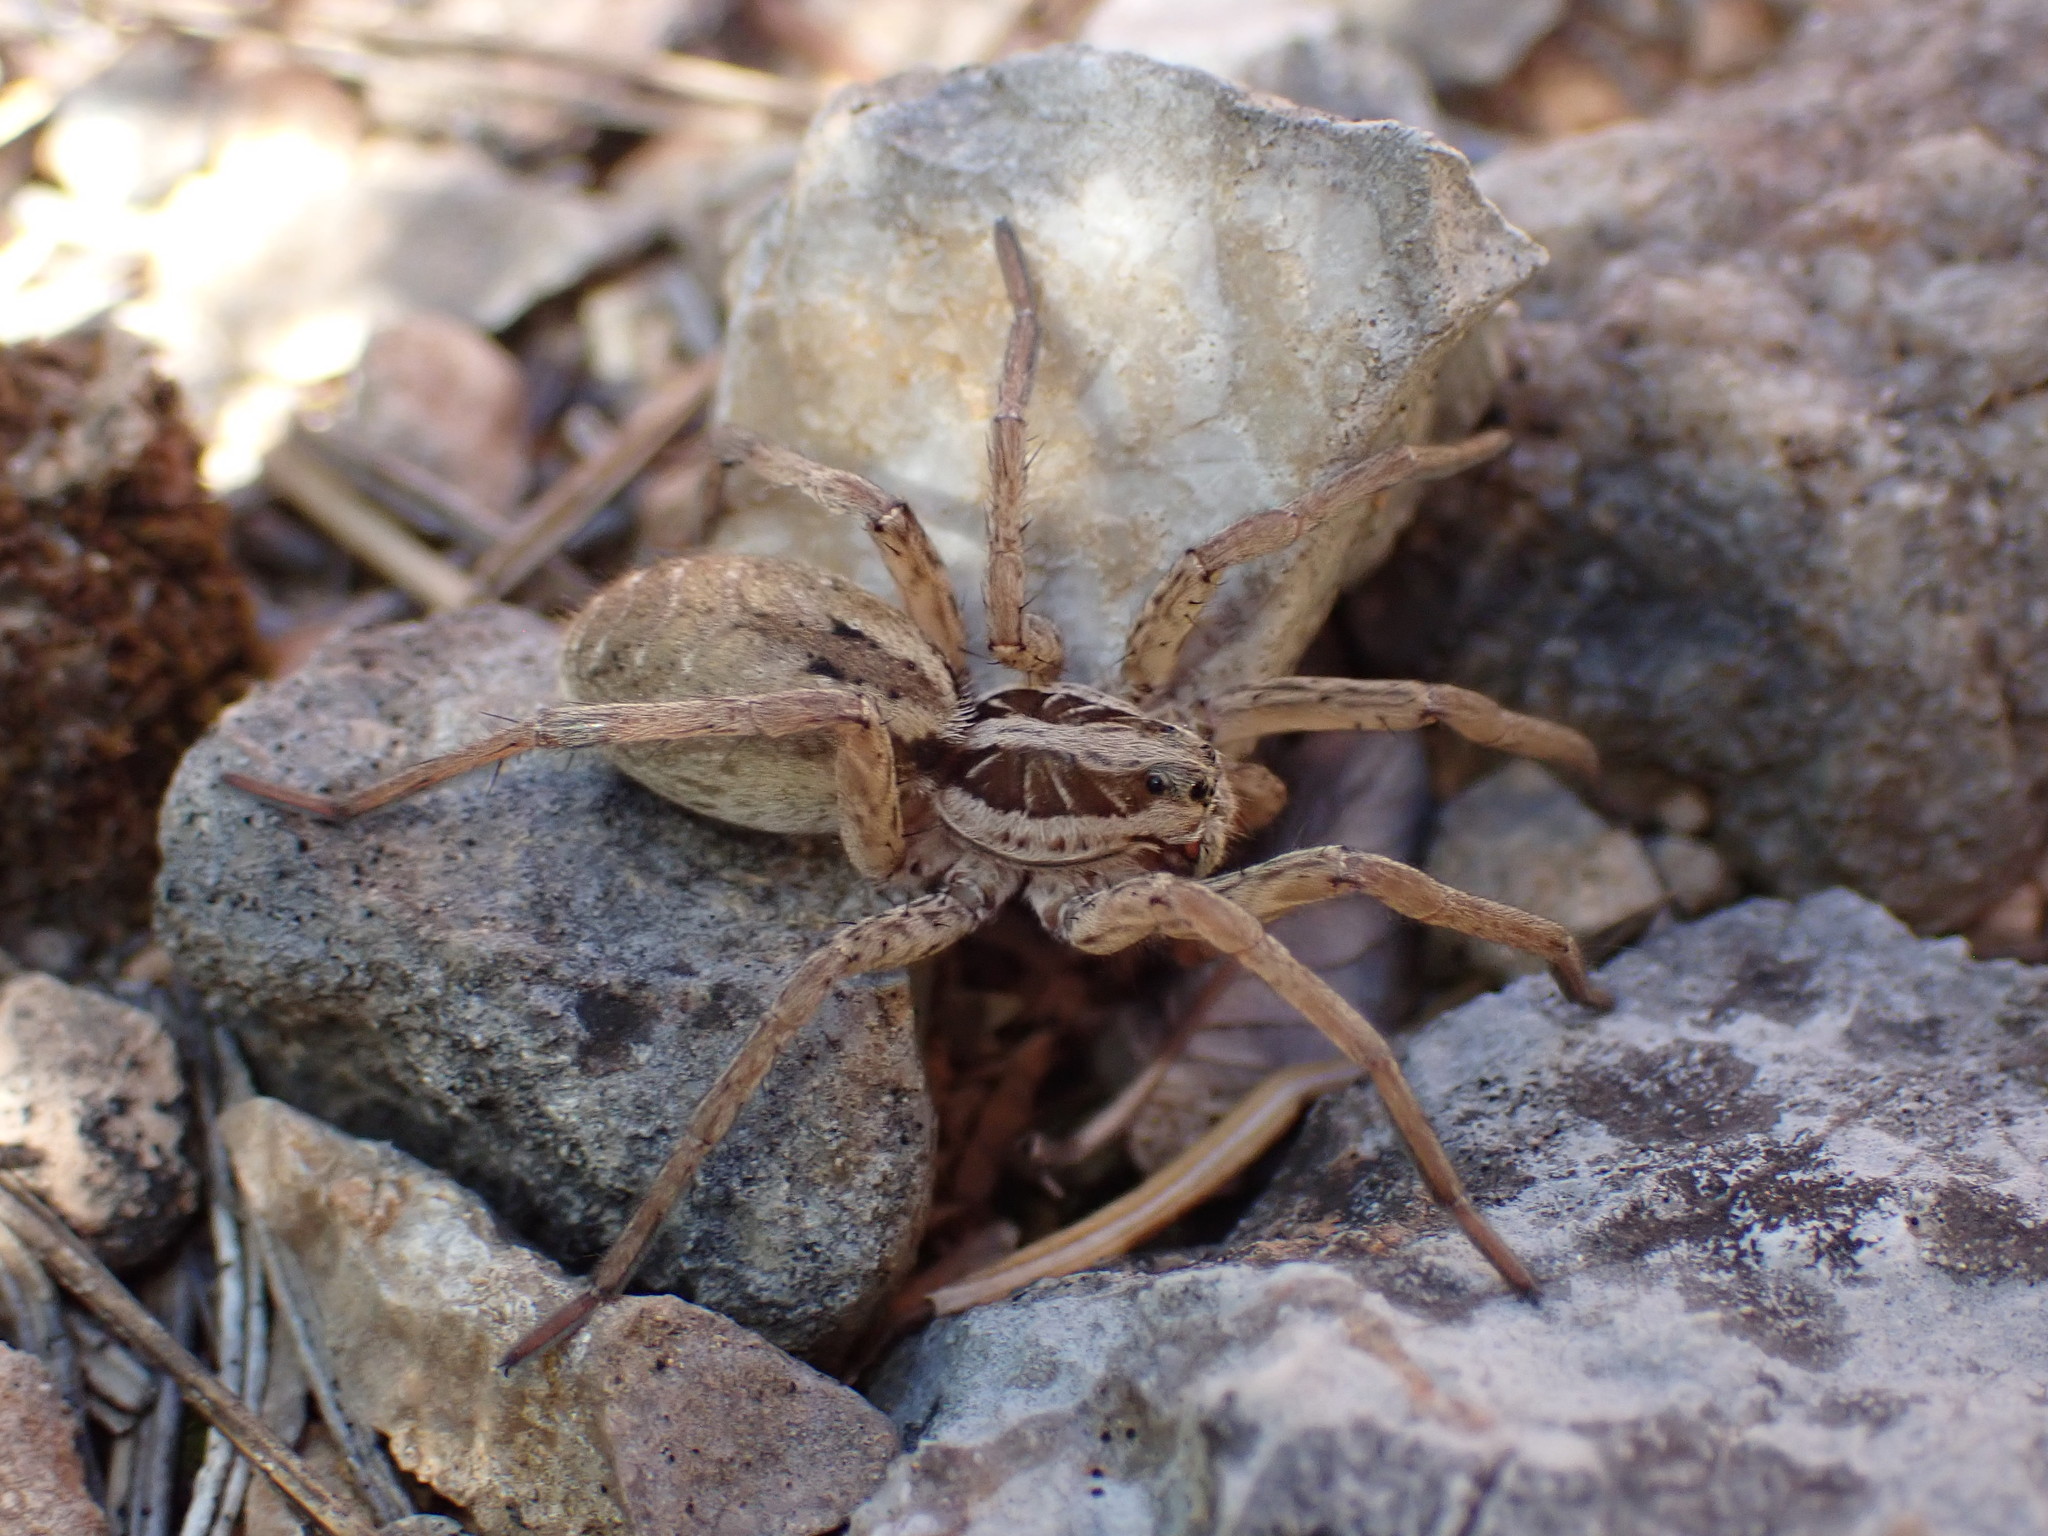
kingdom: Animalia
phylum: Arthropoda
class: Arachnida
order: Araneae
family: Lycosidae
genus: Hogna
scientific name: Hogna radiata
